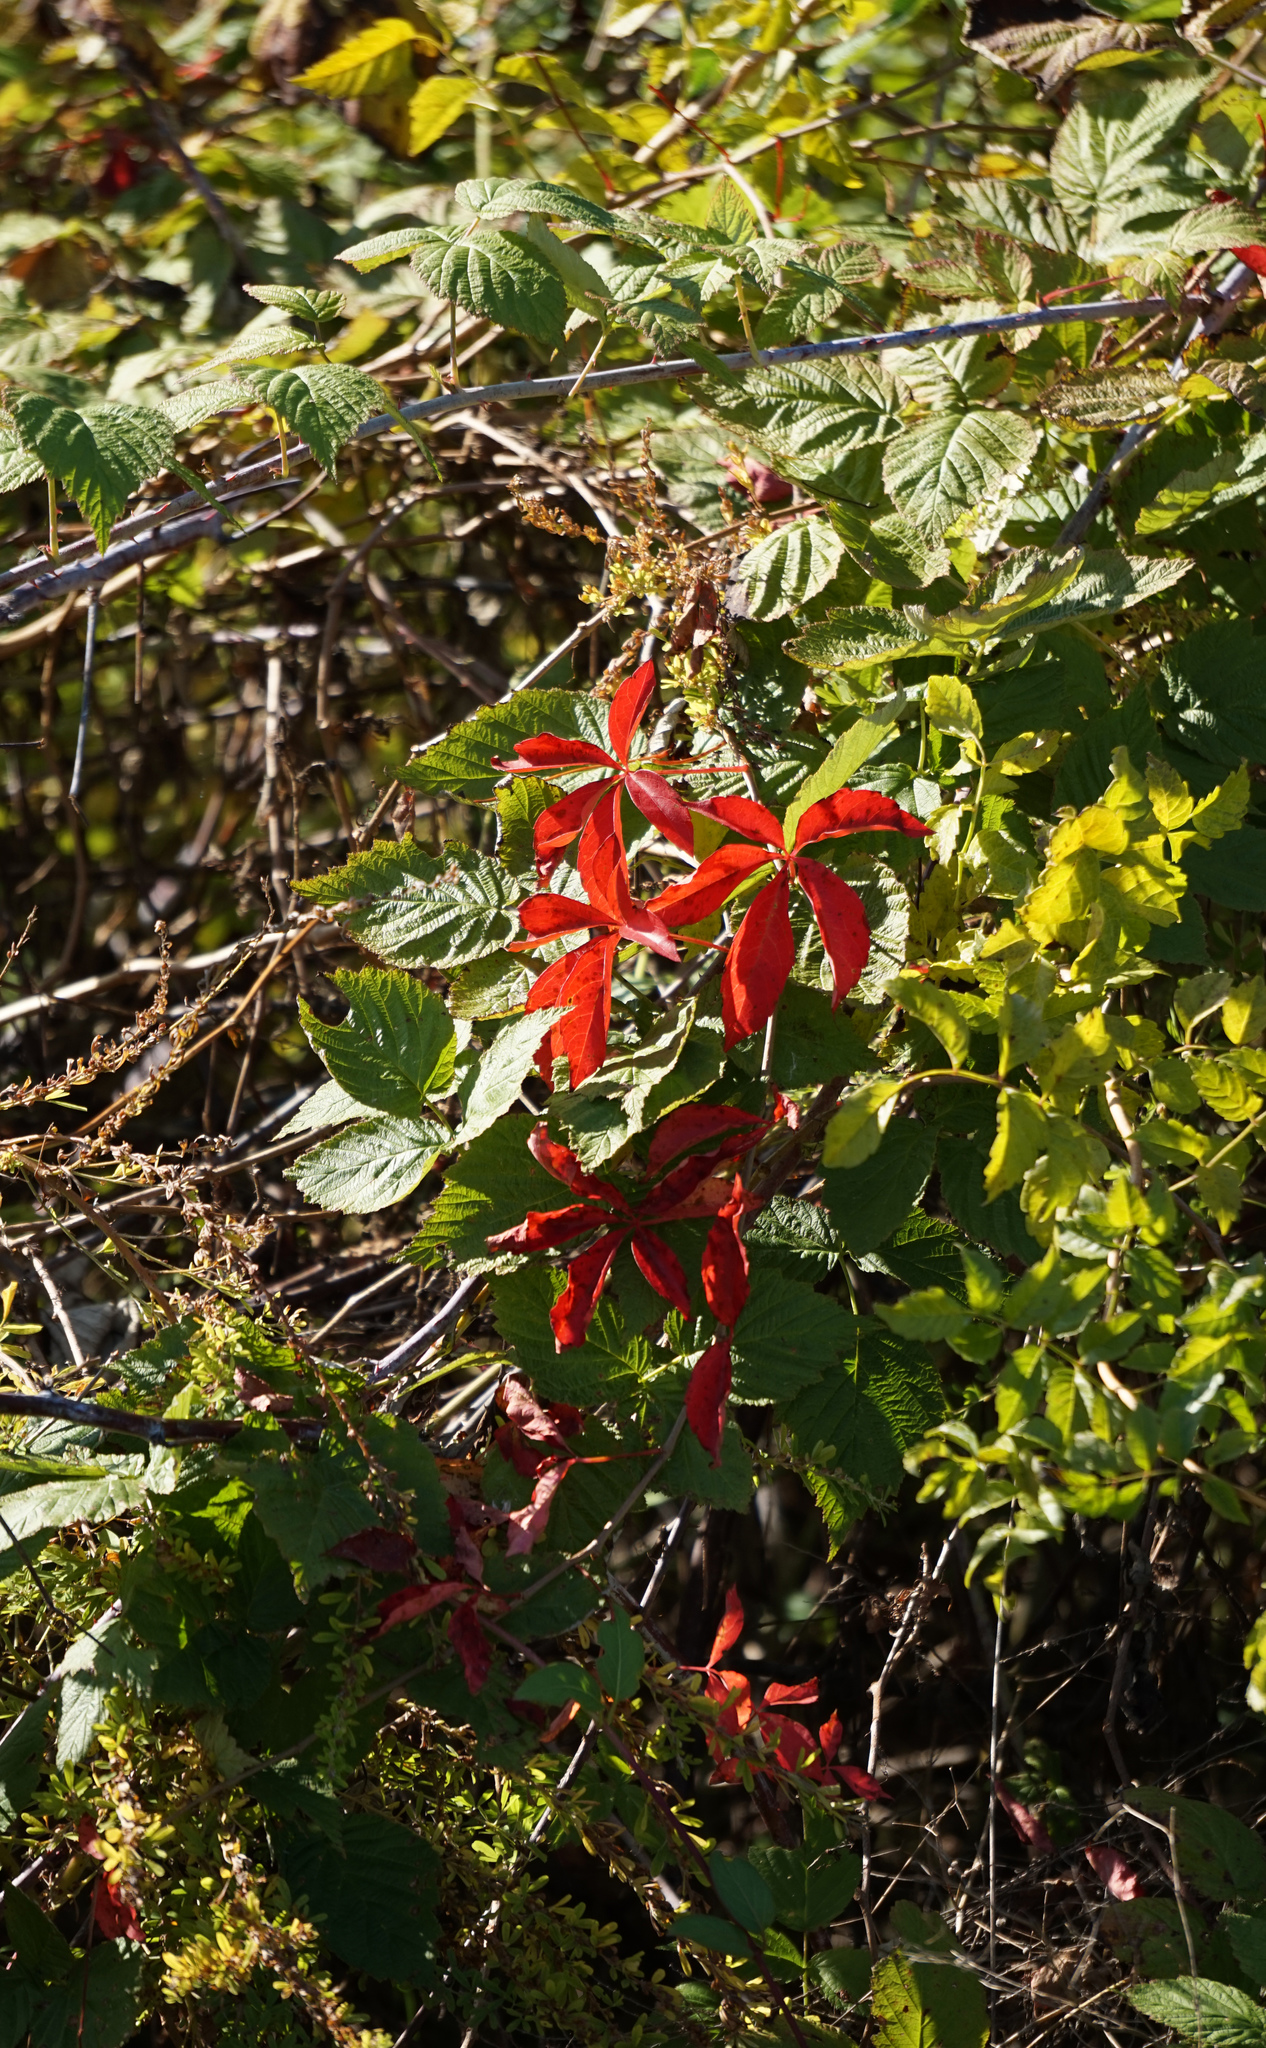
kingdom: Plantae
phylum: Tracheophyta
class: Magnoliopsida
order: Vitales
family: Vitaceae
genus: Parthenocissus
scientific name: Parthenocissus quinquefolia
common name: Virginia-creeper
